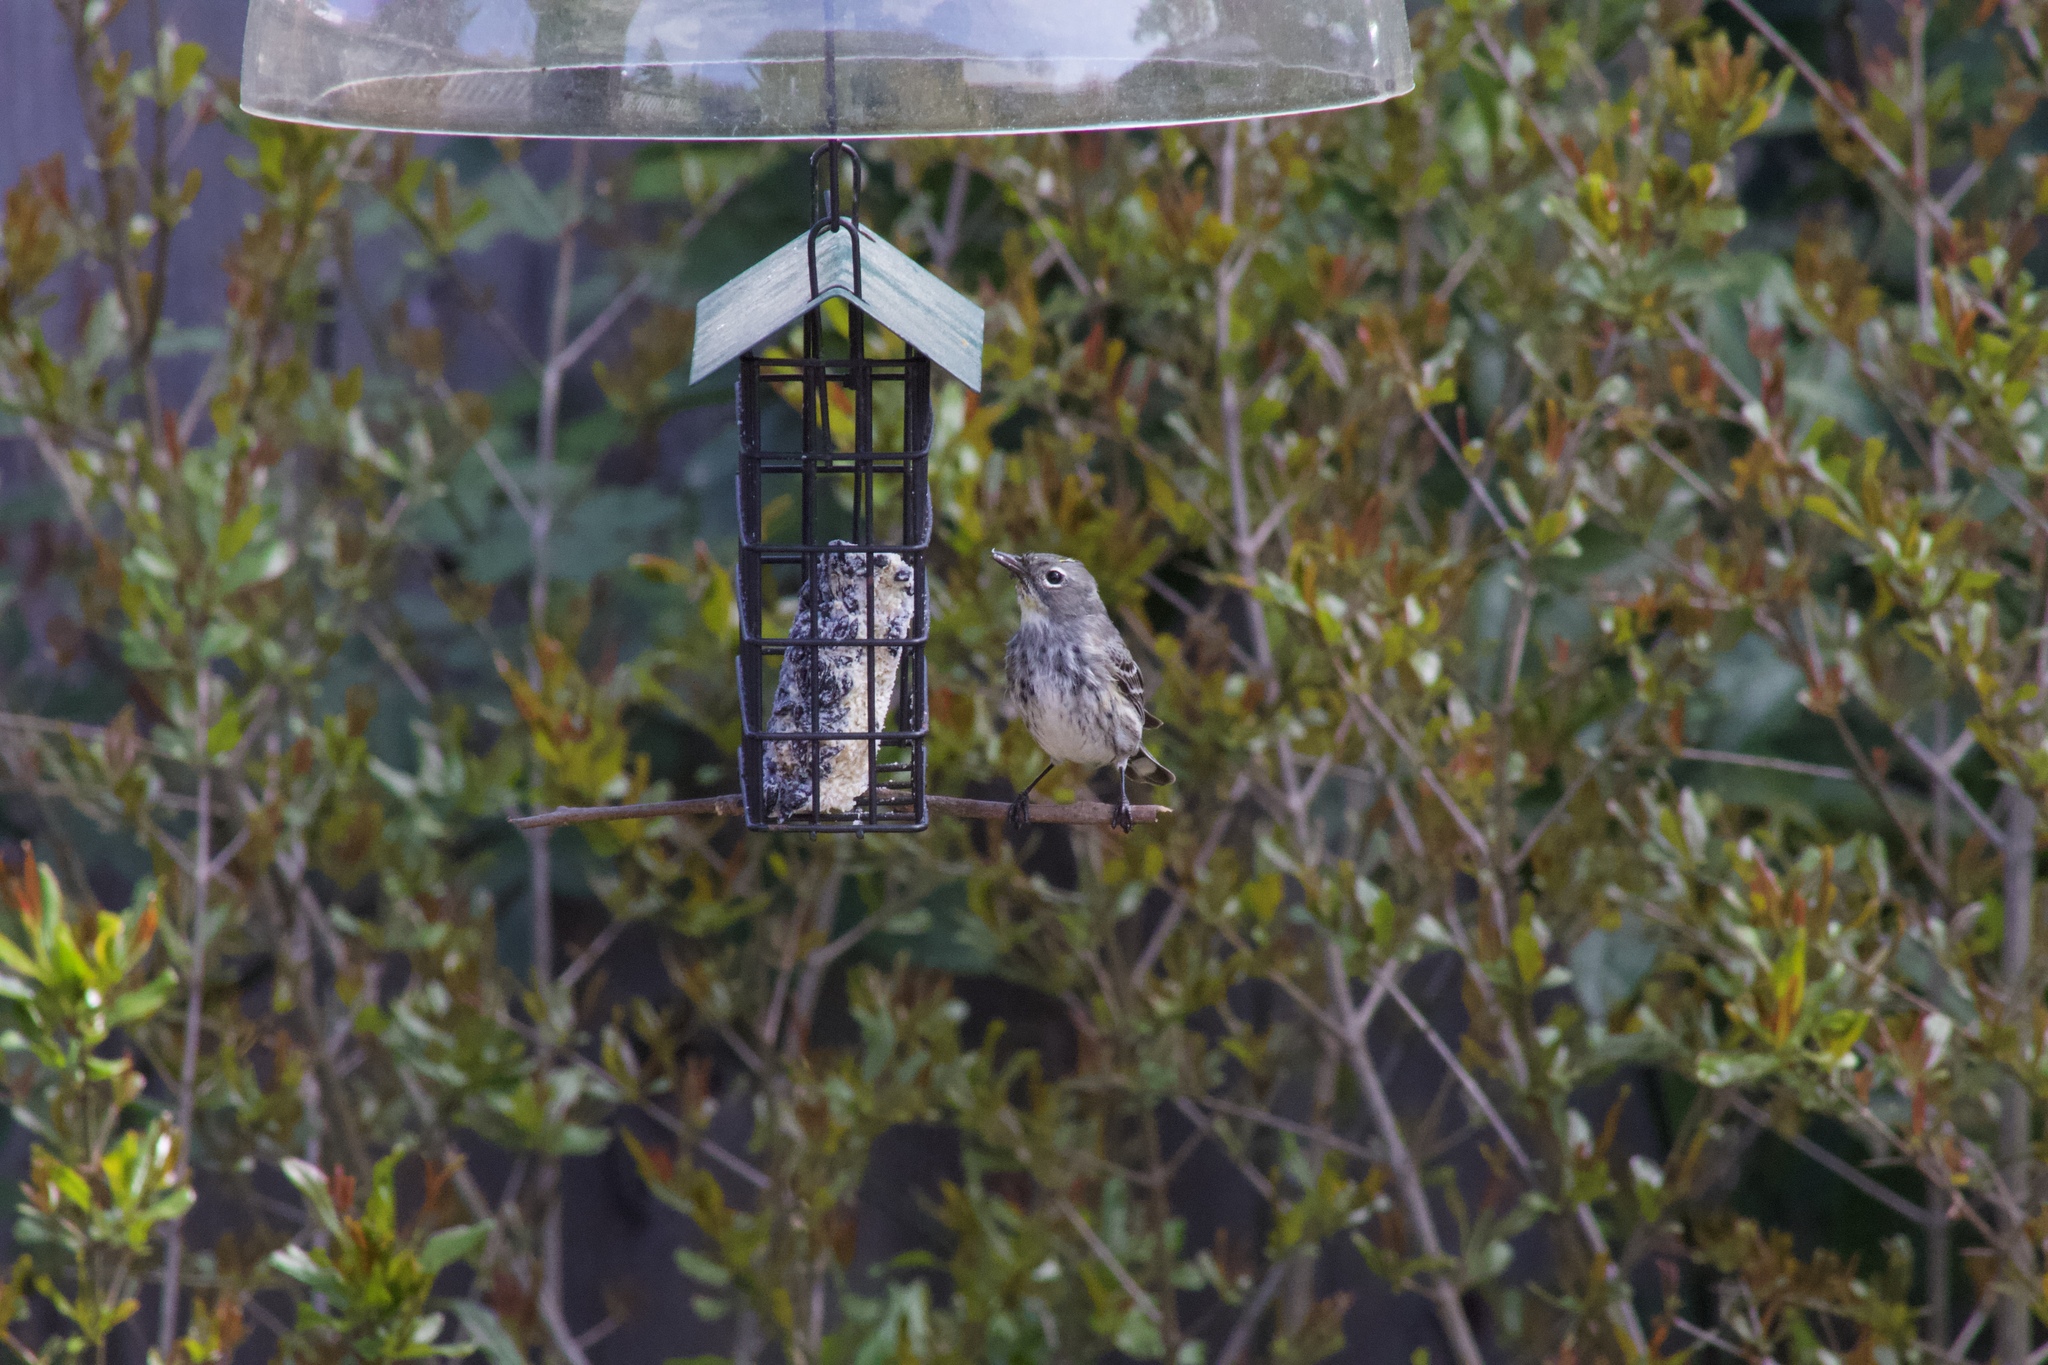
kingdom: Animalia
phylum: Chordata
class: Aves
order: Passeriformes
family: Parulidae
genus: Setophaga
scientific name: Setophaga coronata
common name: Myrtle warbler
